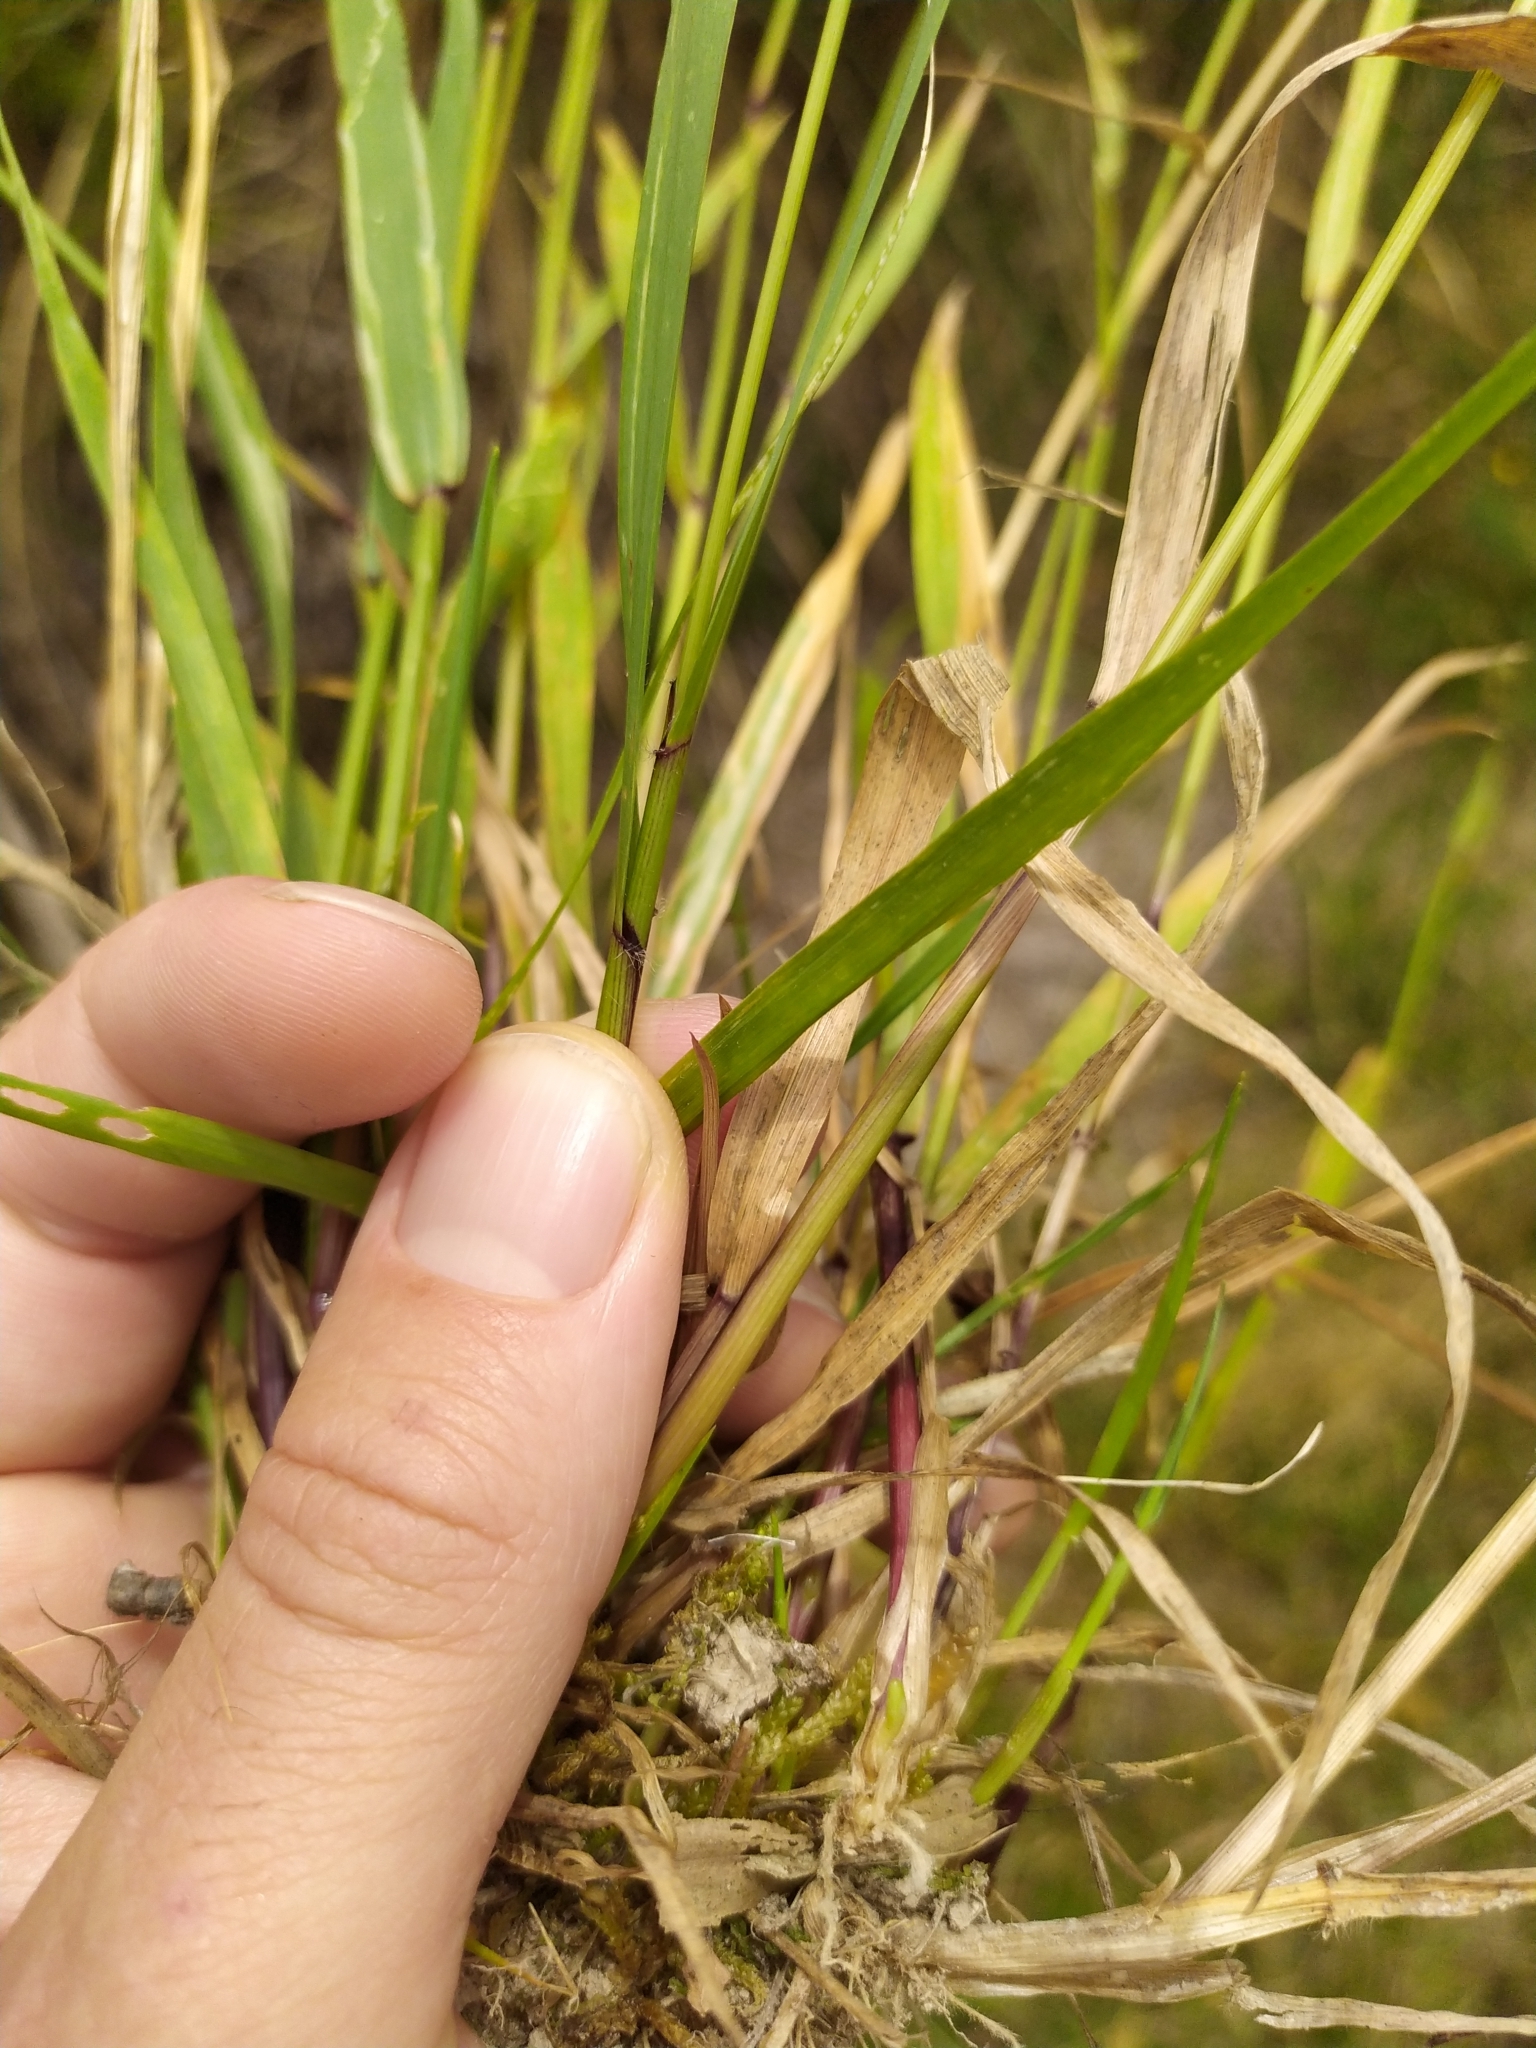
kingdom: Plantae
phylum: Tracheophyta
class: Liliopsida
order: Poales
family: Poaceae
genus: Anthoxanthum
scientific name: Anthoxanthum odoratum
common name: Sweet vernalgrass
